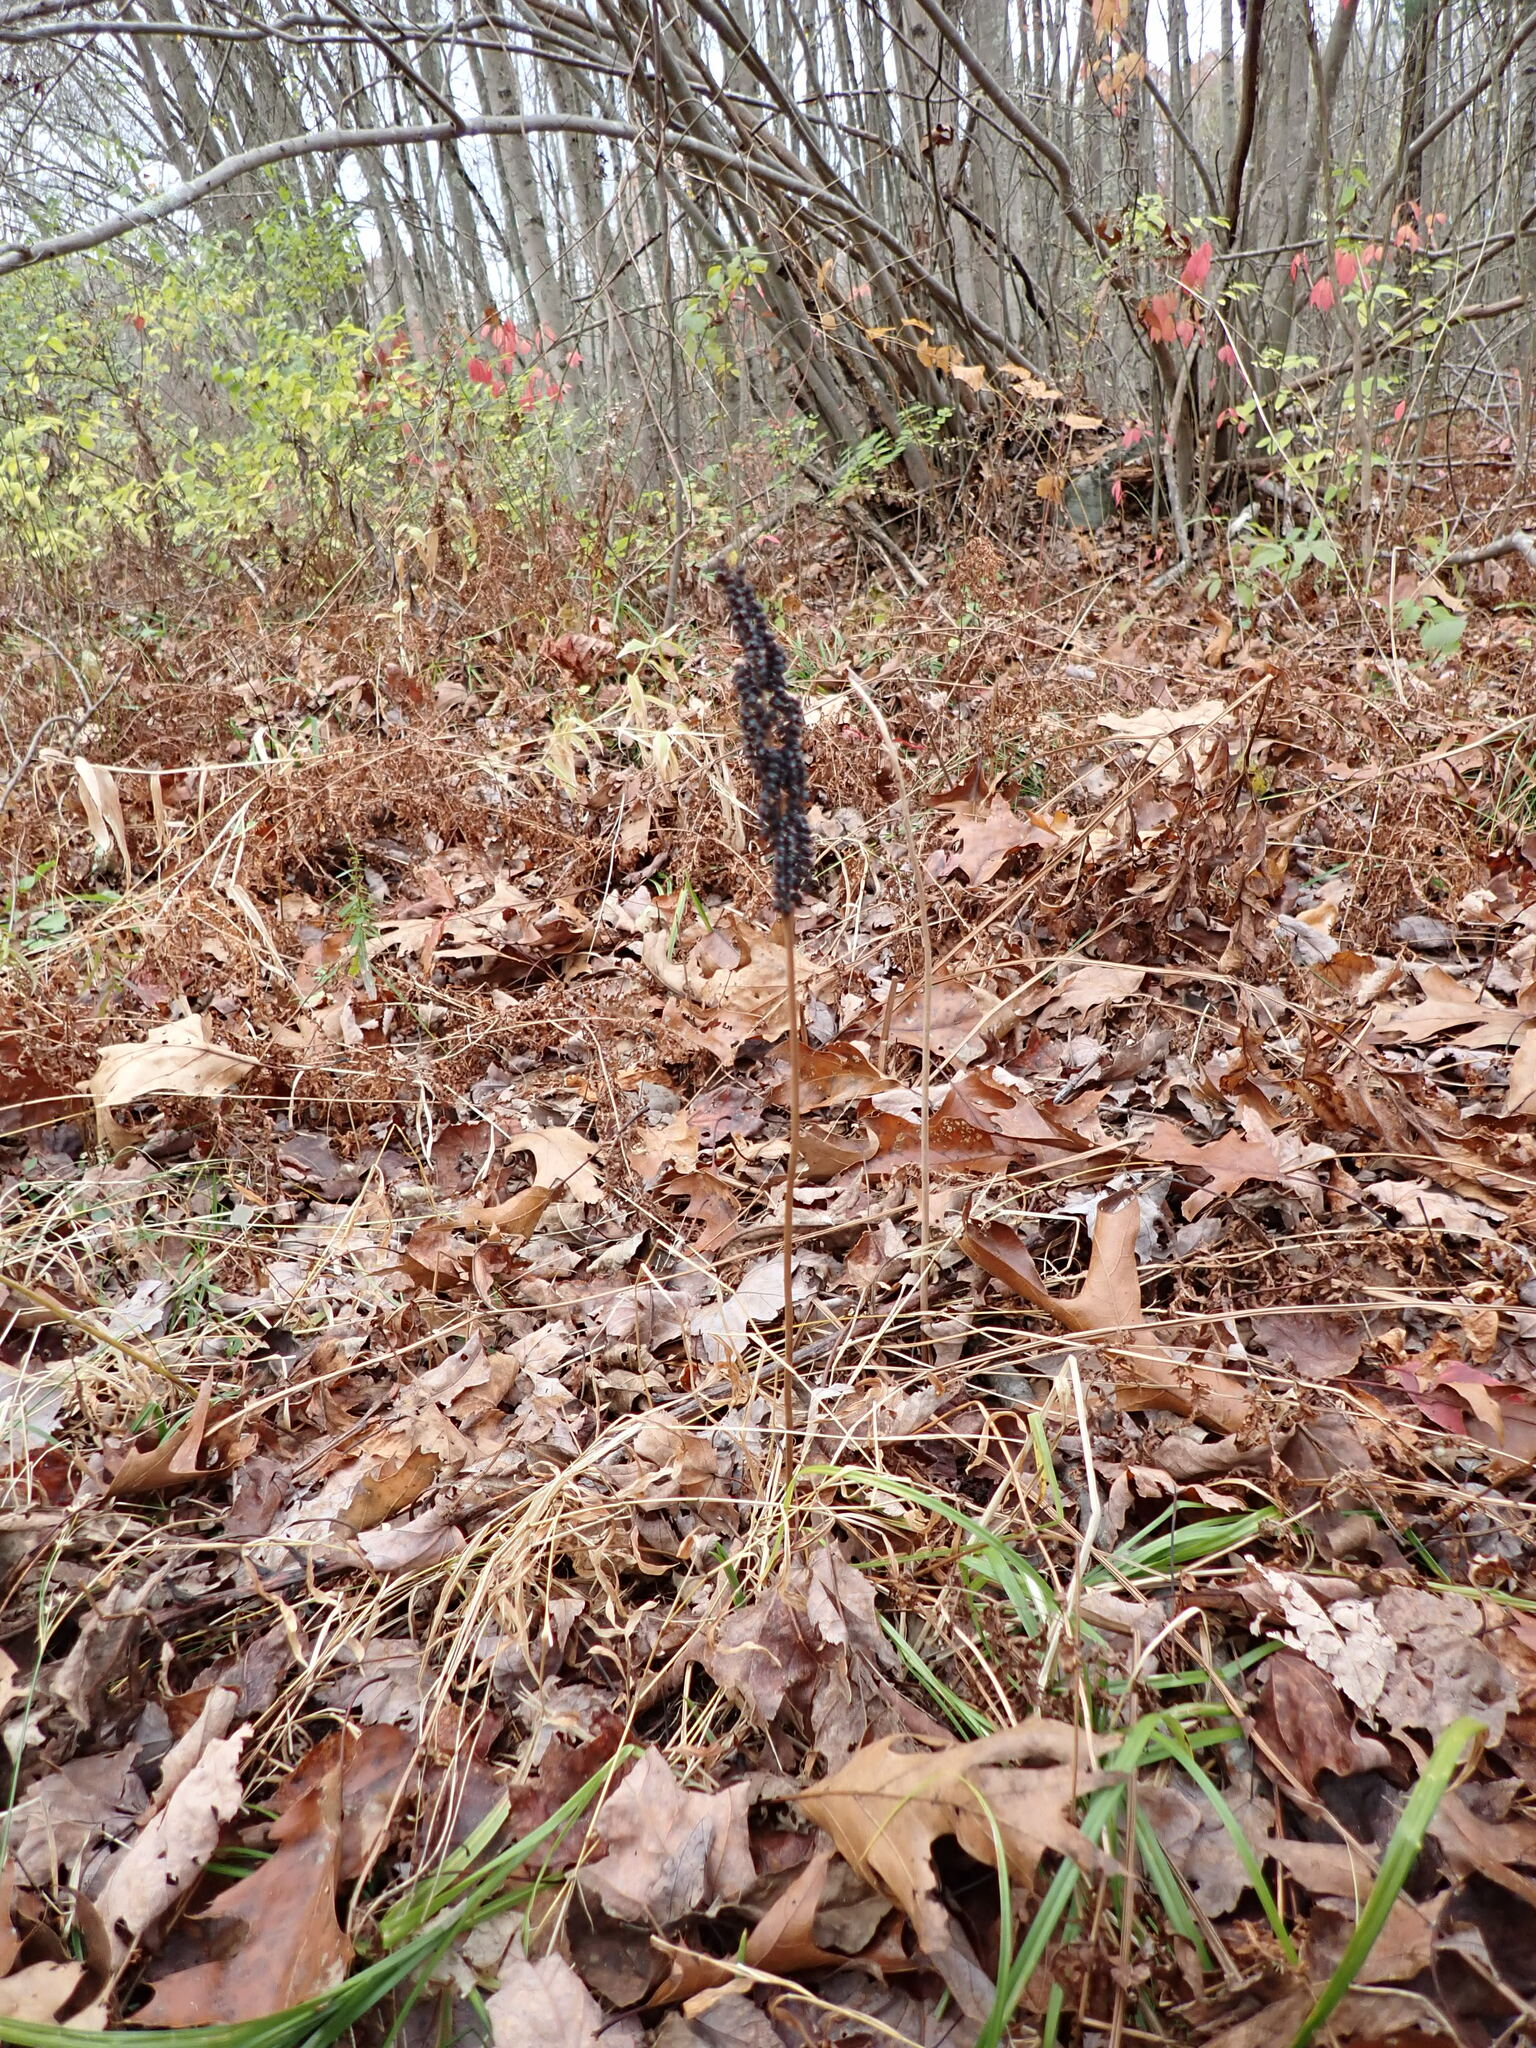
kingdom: Plantae
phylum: Tracheophyta
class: Polypodiopsida
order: Polypodiales
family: Onocleaceae
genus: Onoclea
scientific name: Onoclea sensibilis
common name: Sensitive fern
